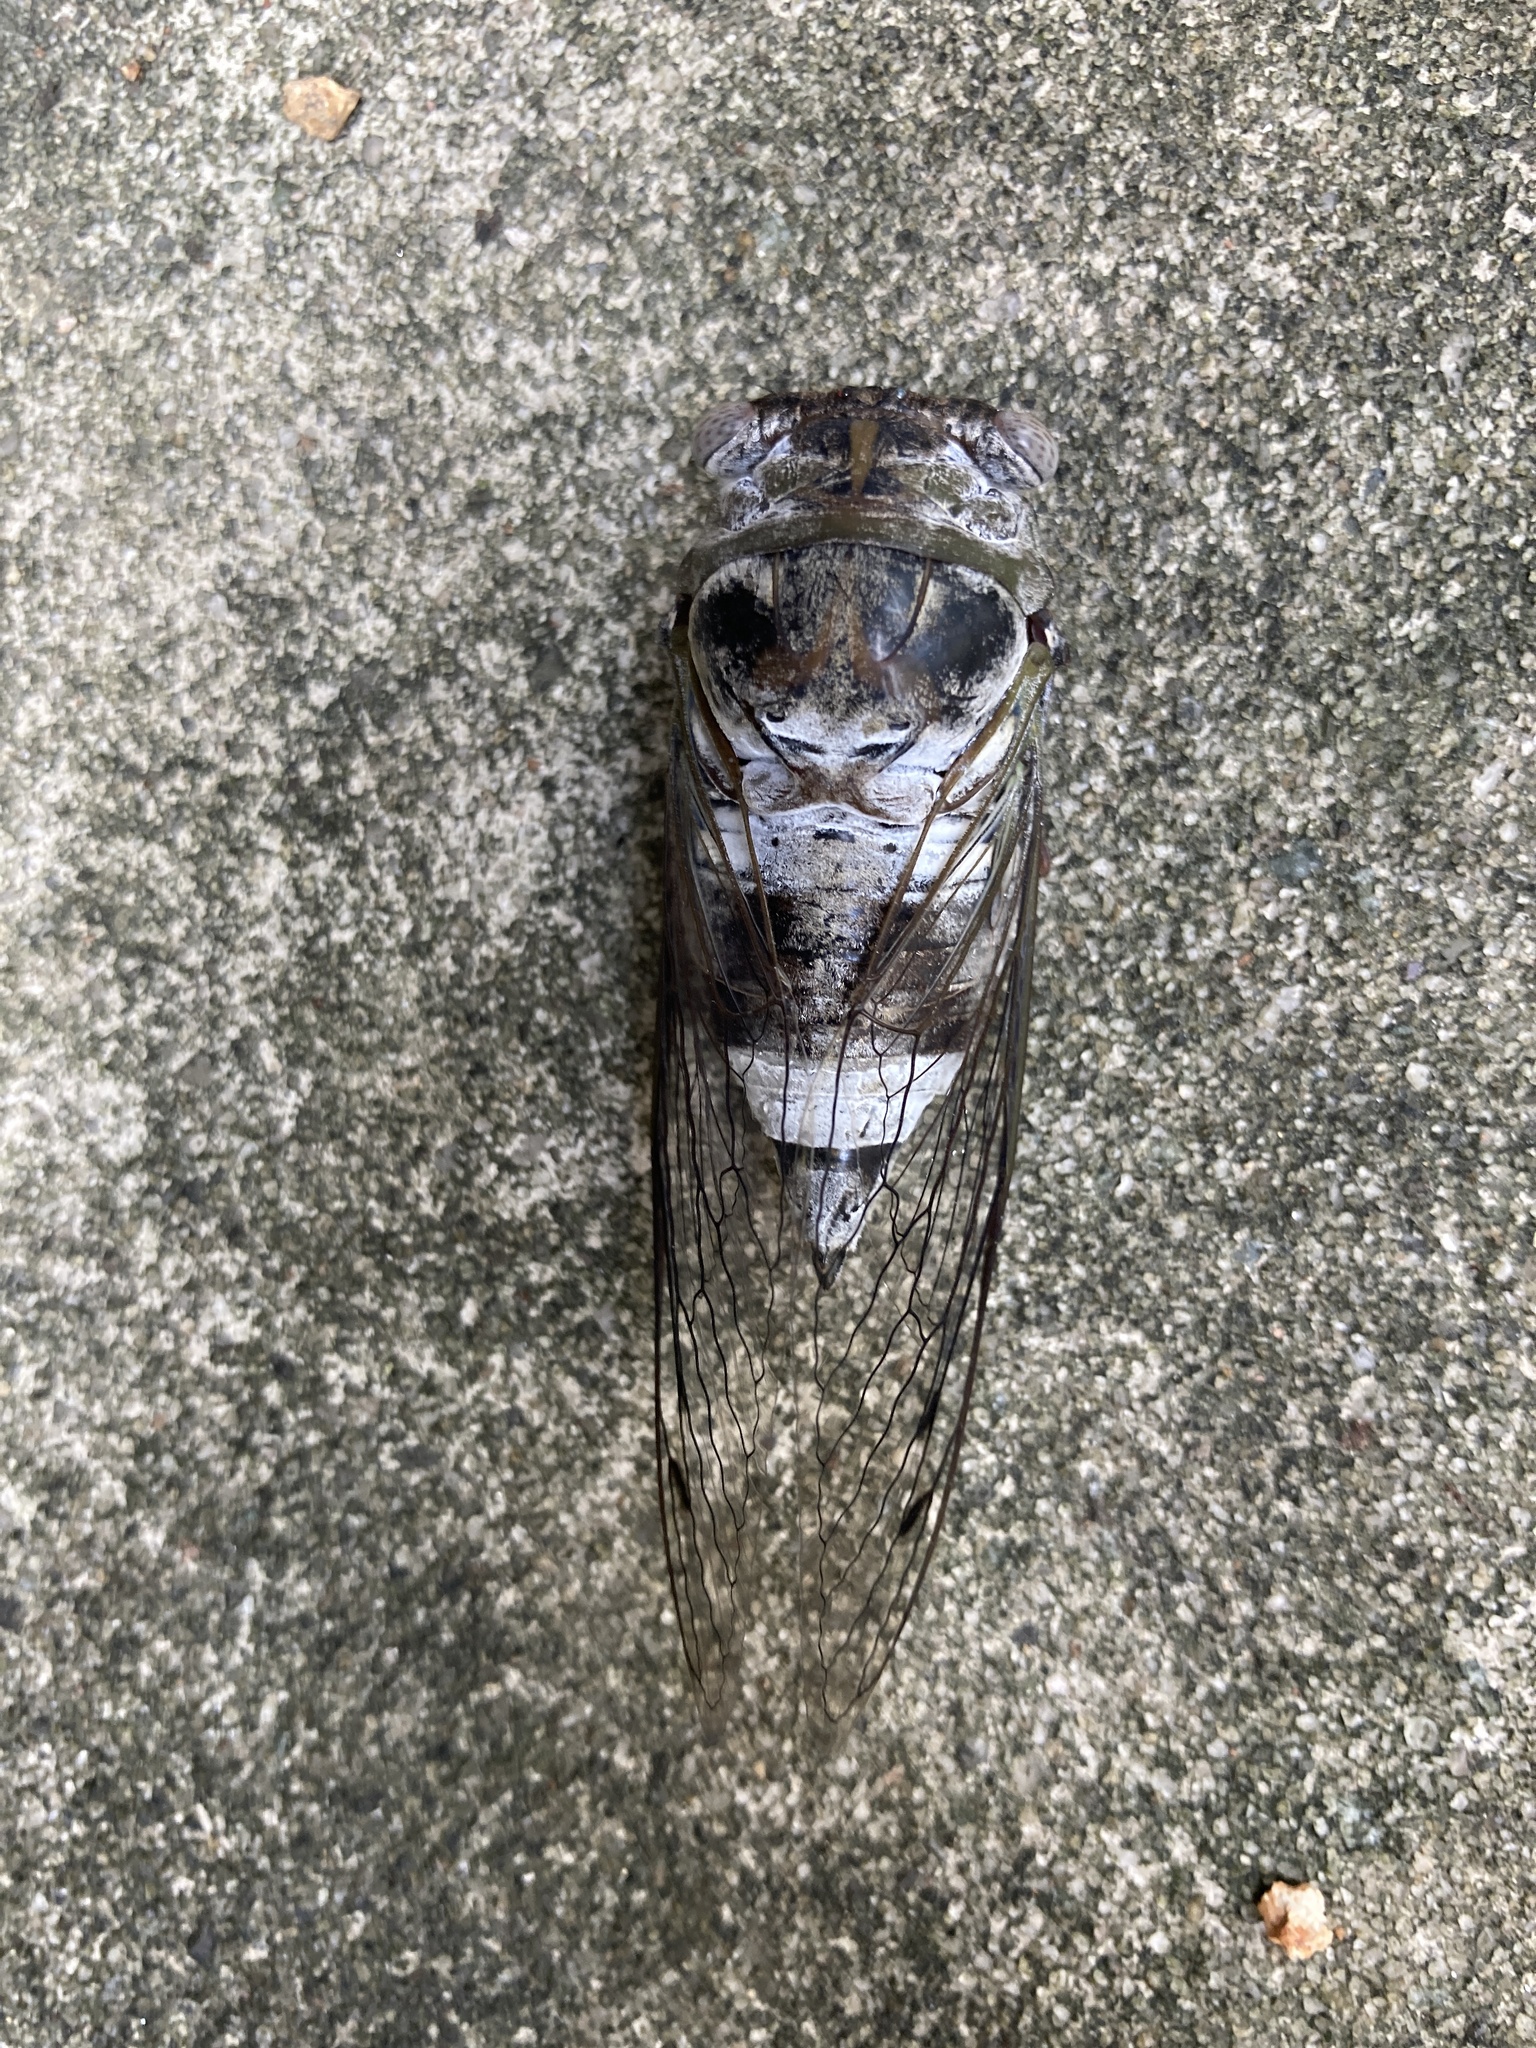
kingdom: Animalia
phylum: Arthropoda
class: Insecta
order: Hemiptera
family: Cicadidae
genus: Diceroprocta
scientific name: Diceroprocta grossa
